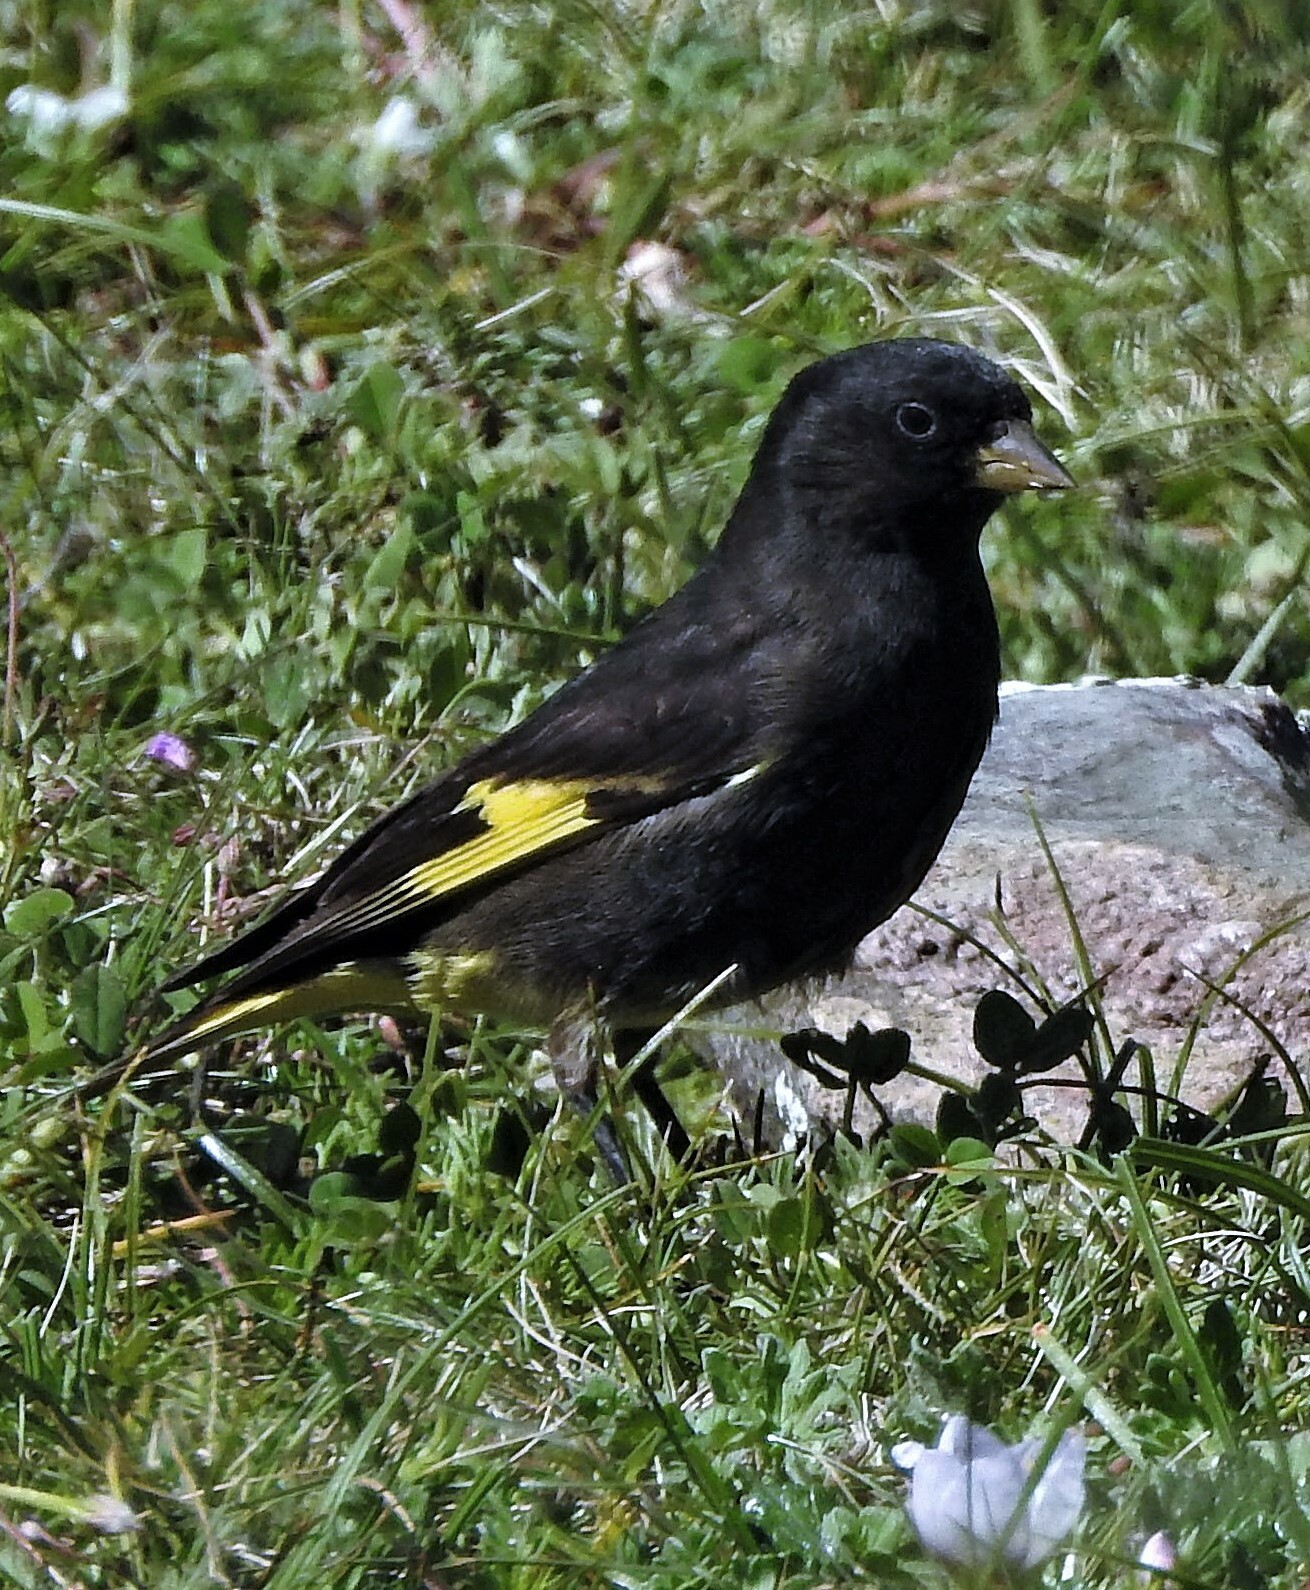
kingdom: Animalia
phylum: Chordata
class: Aves
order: Passeriformes
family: Fringillidae
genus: Spinus
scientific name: Spinus atratus
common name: Black siskin
